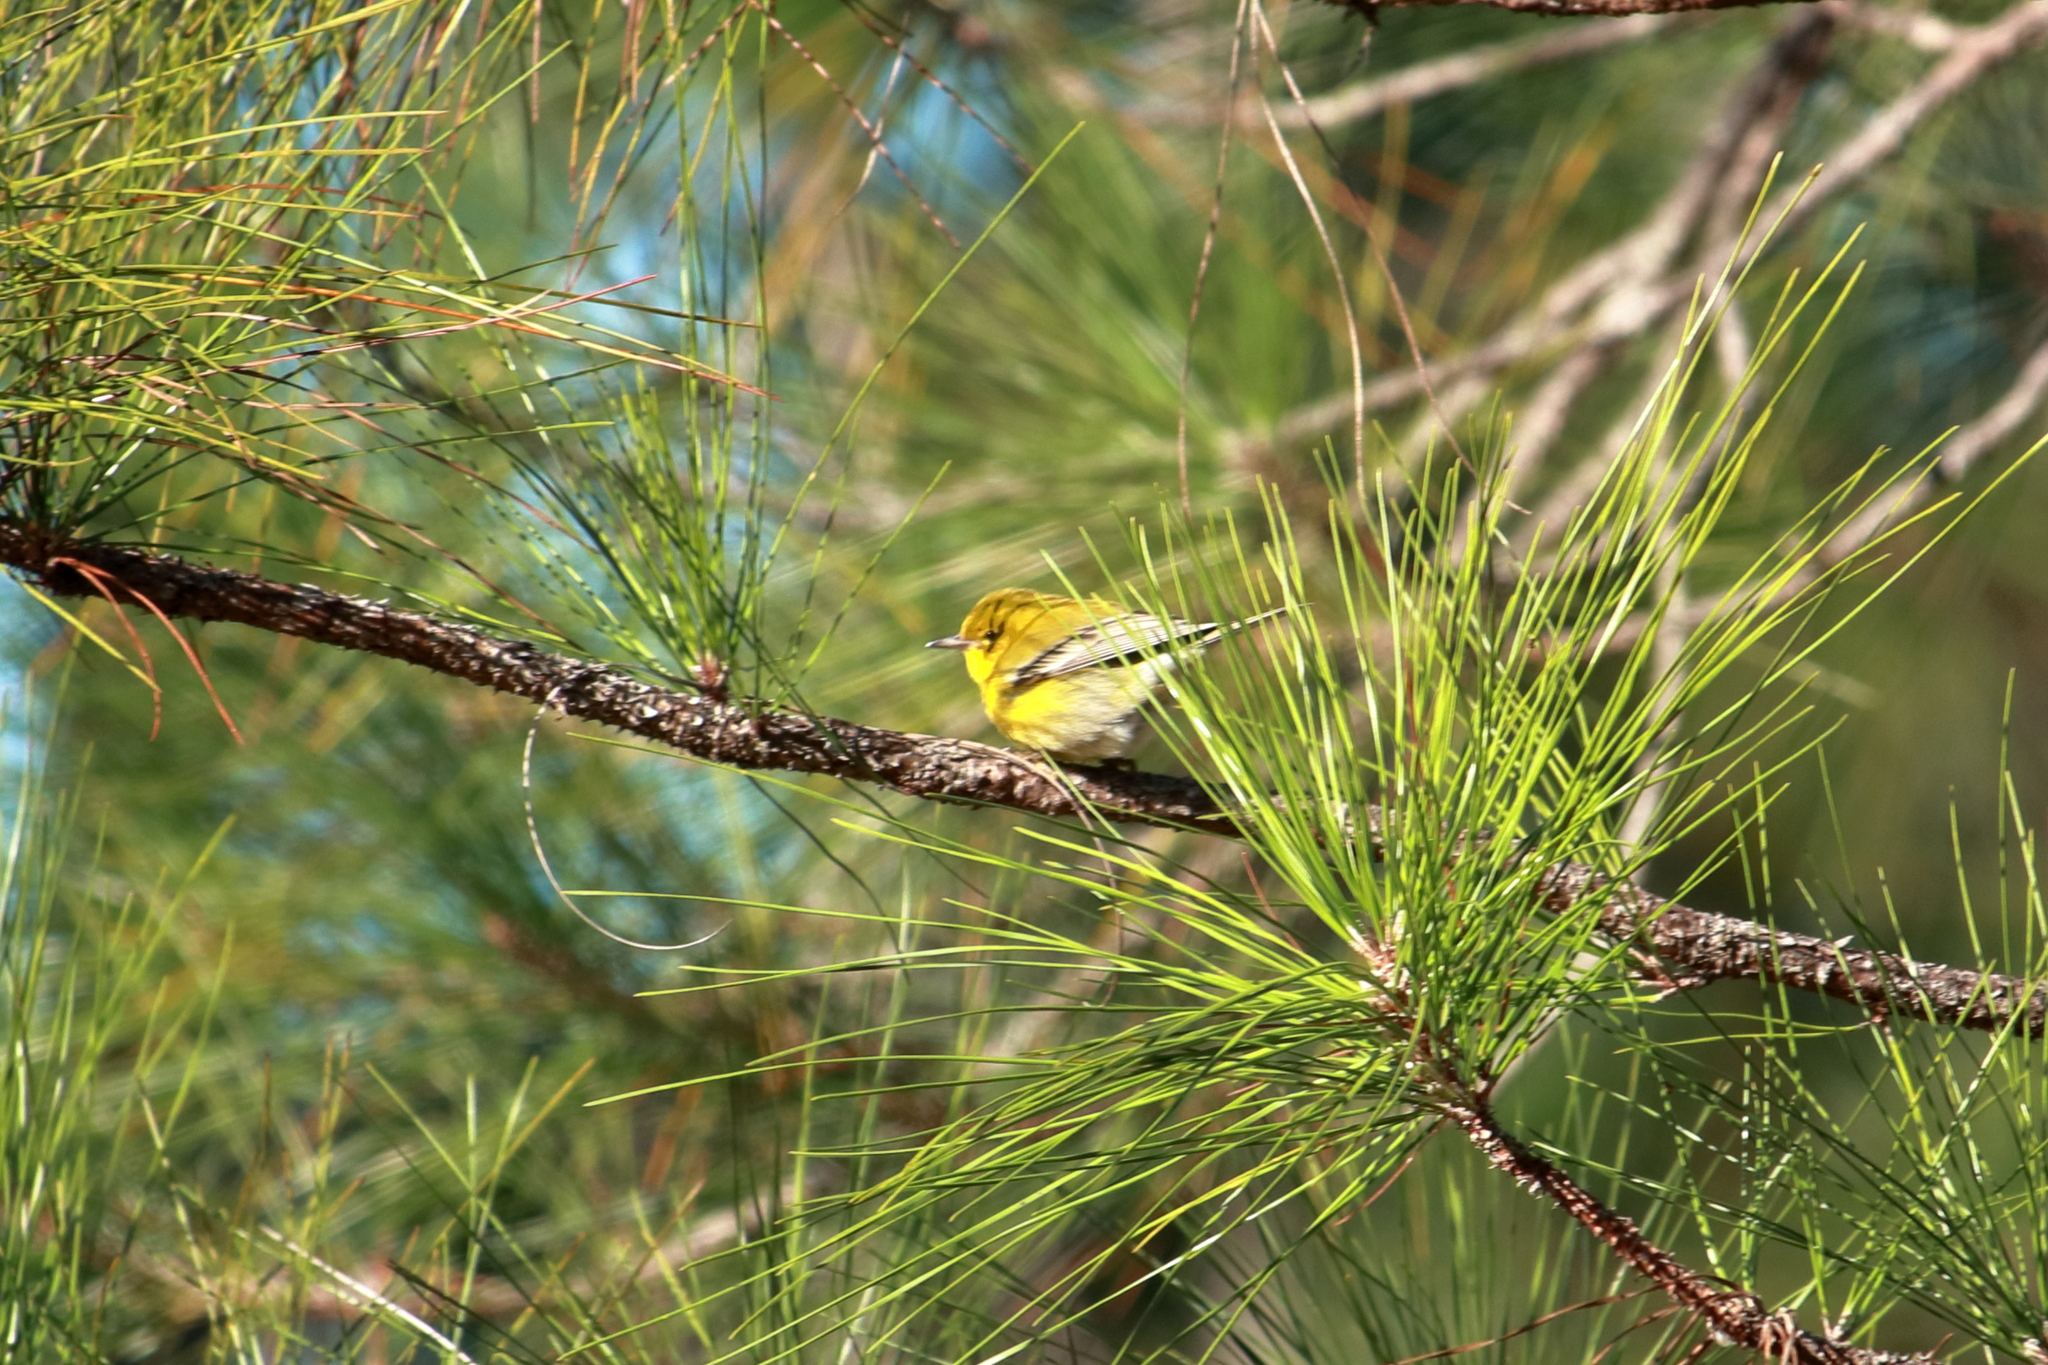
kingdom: Animalia
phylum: Chordata
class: Aves
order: Passeriformes
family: Parulidae
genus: Setophaga
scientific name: Setophaga pinus
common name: Pine warbler
